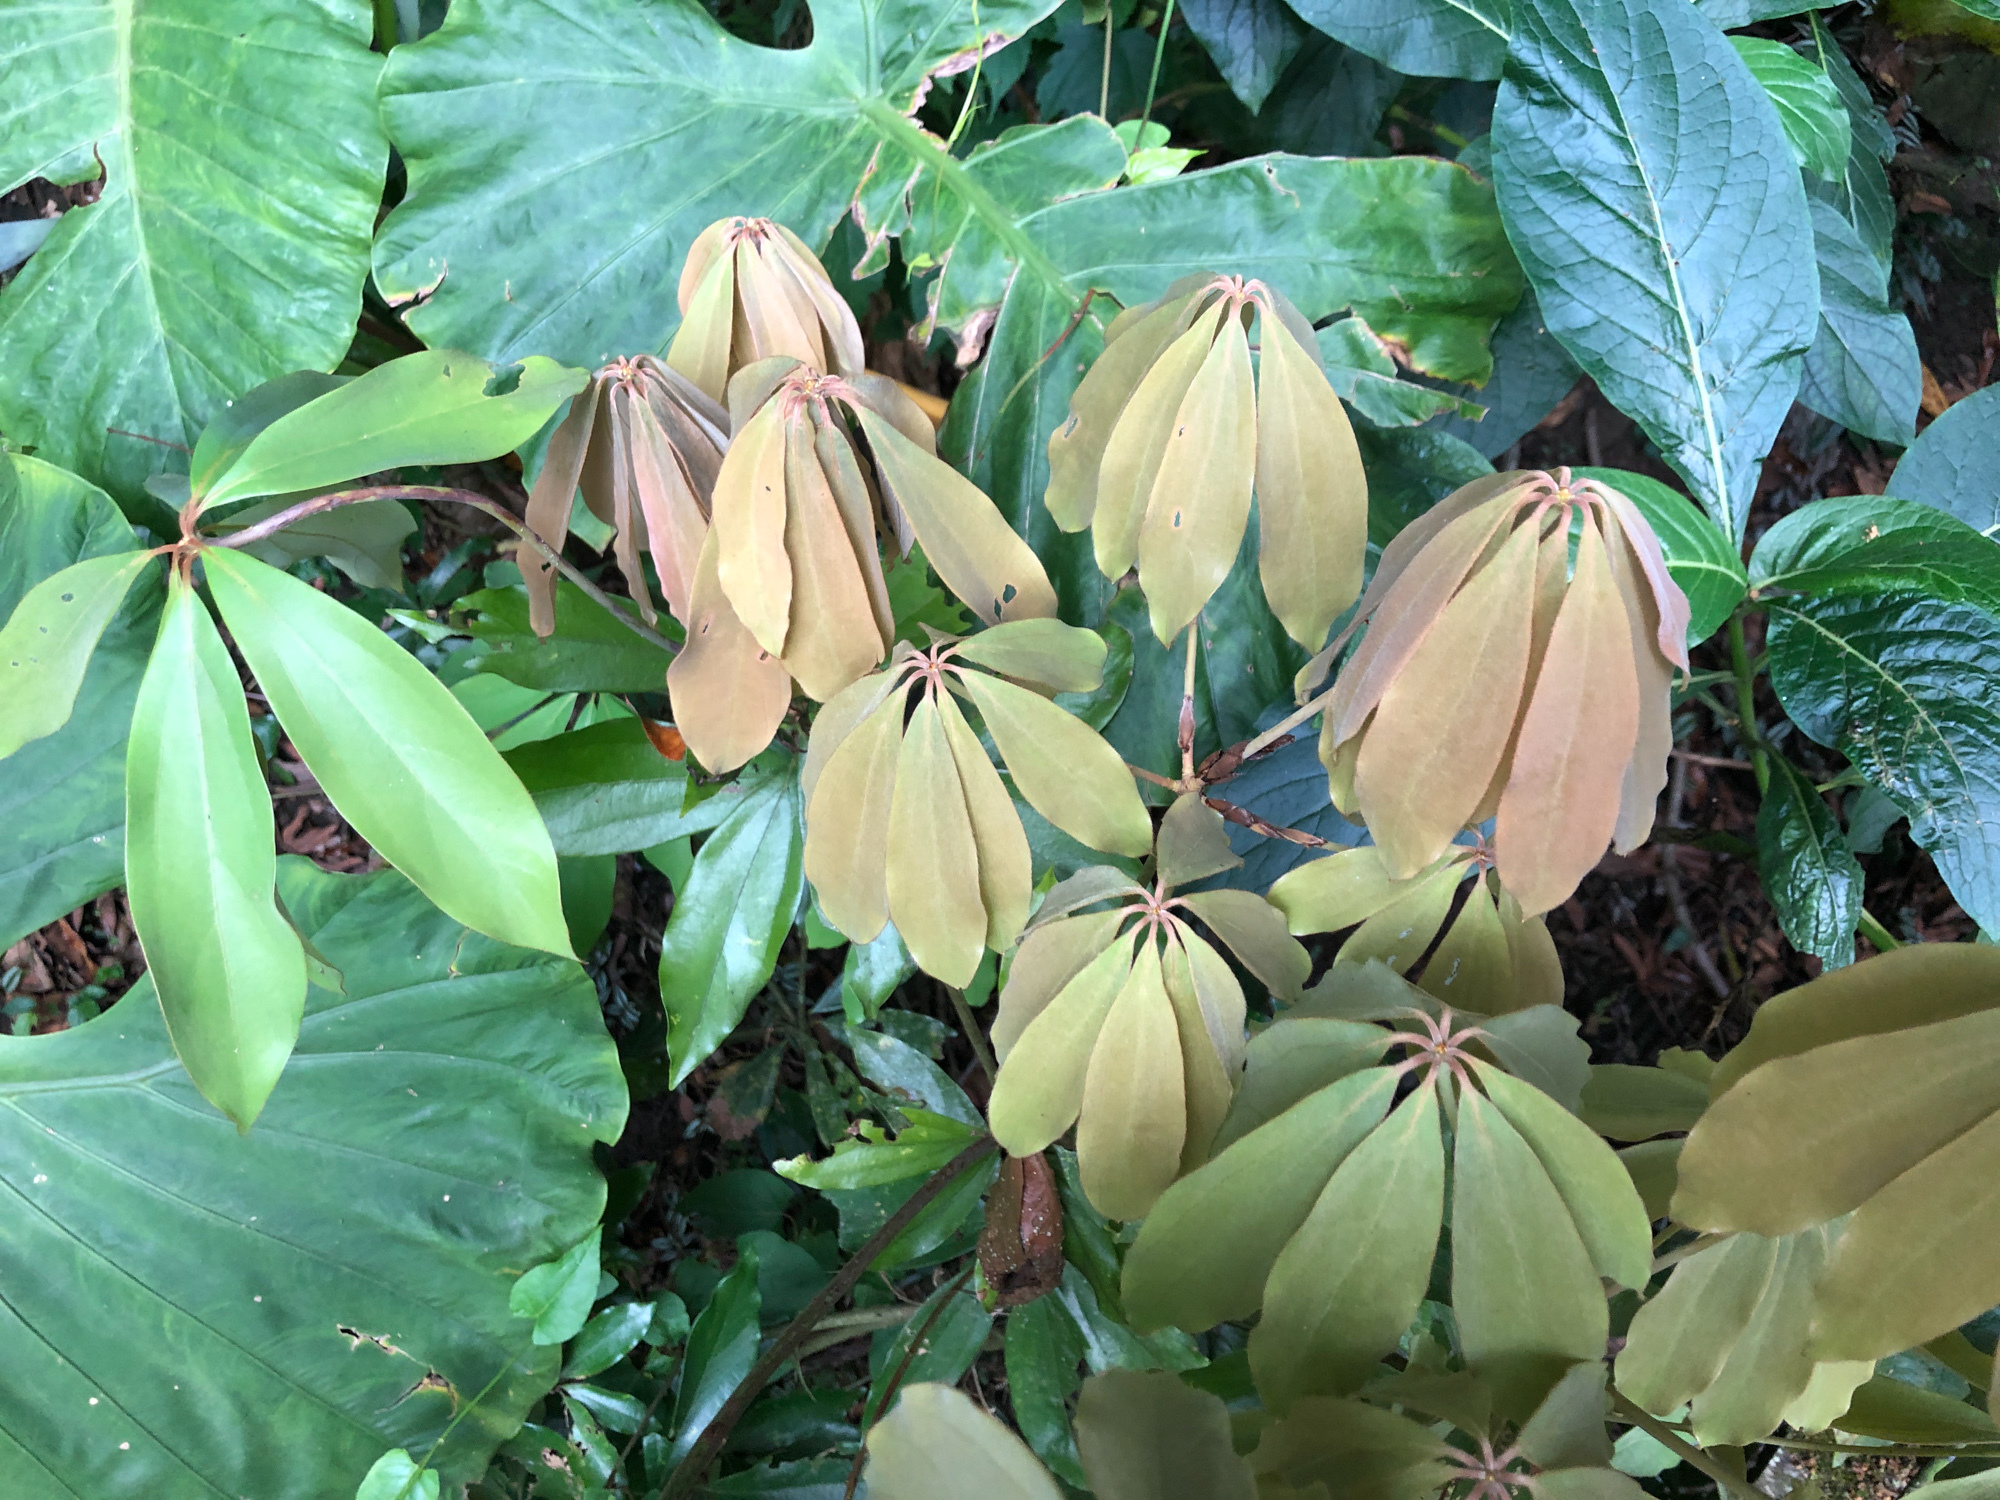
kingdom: Plantae
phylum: Tracheophyta
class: Magnoliopsida
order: Laurales
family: Lauraceae
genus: Neolitsea
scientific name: Neolitsea konishii
